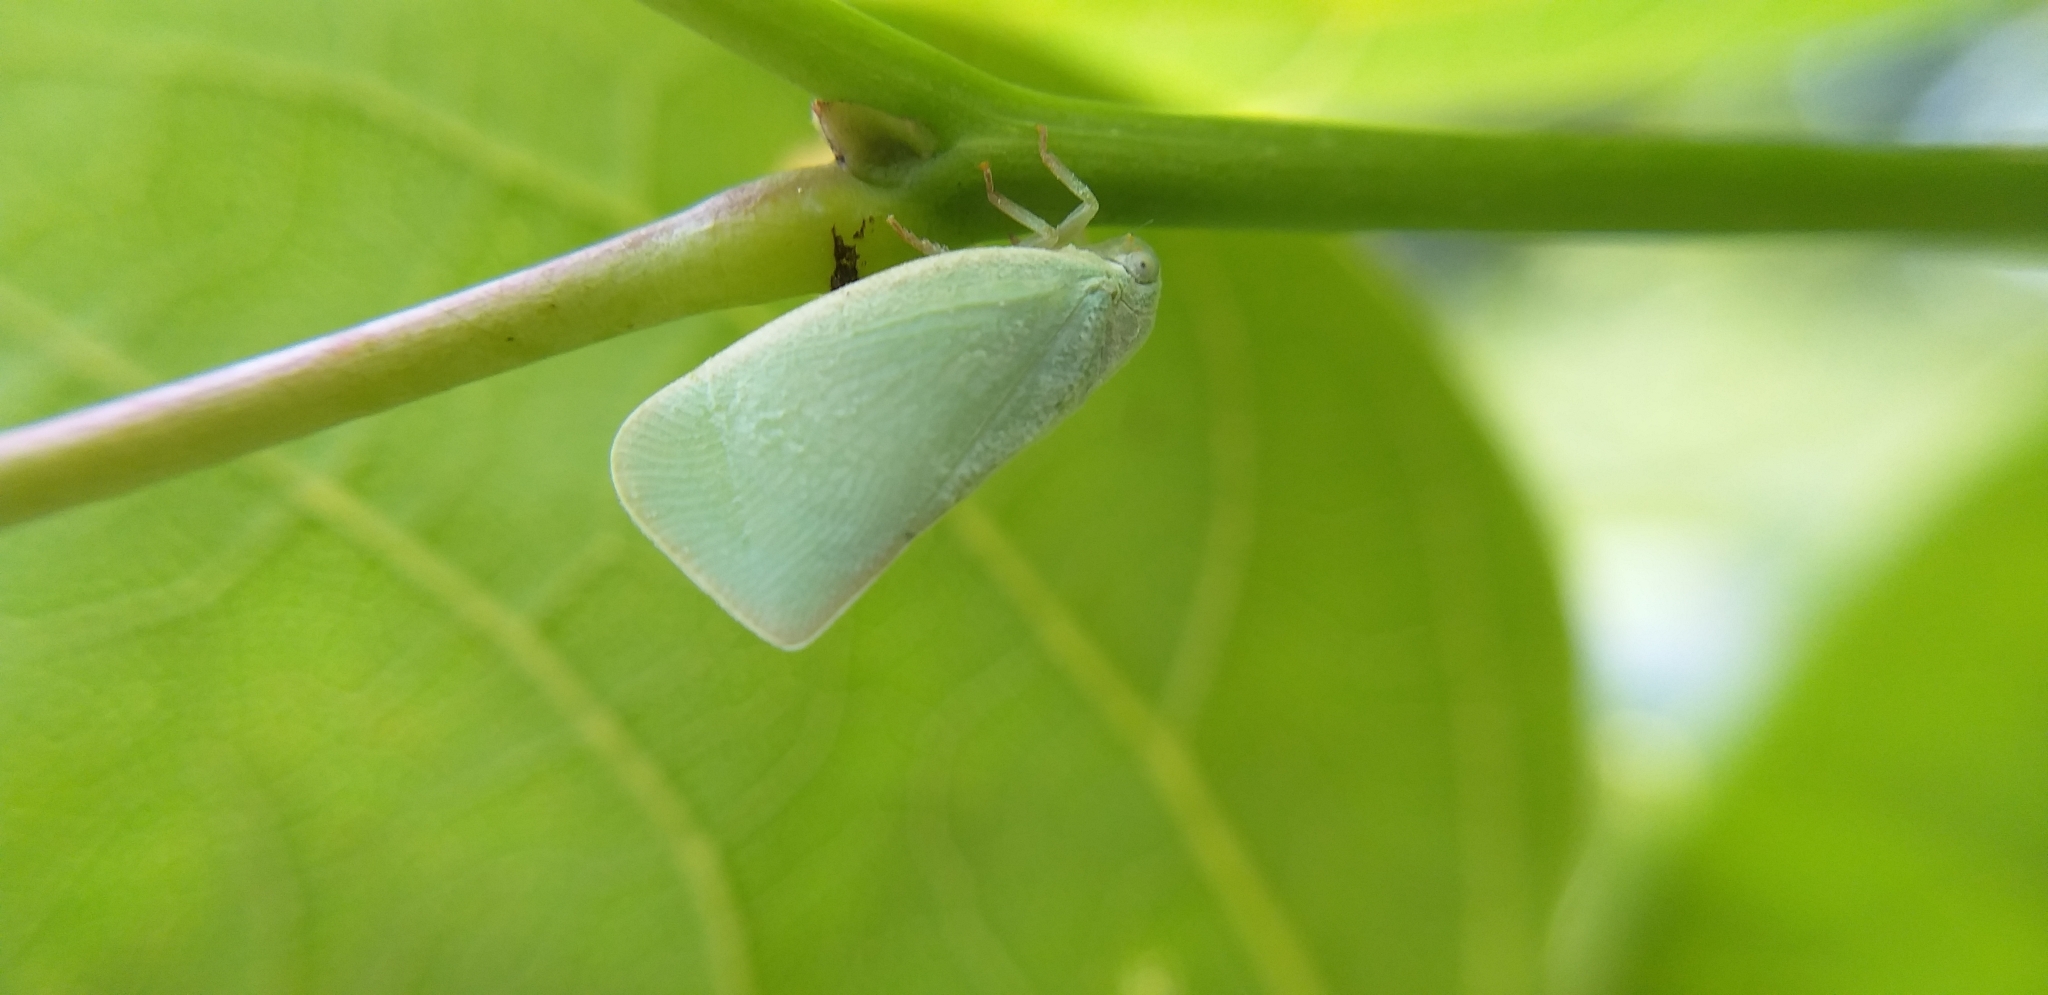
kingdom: Animalia
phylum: Arthropoda
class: Insecta
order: Hemiptera
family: Flatidae
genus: Flatormenis
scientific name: Flatormenis proxima
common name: Northern flatid planthopper
